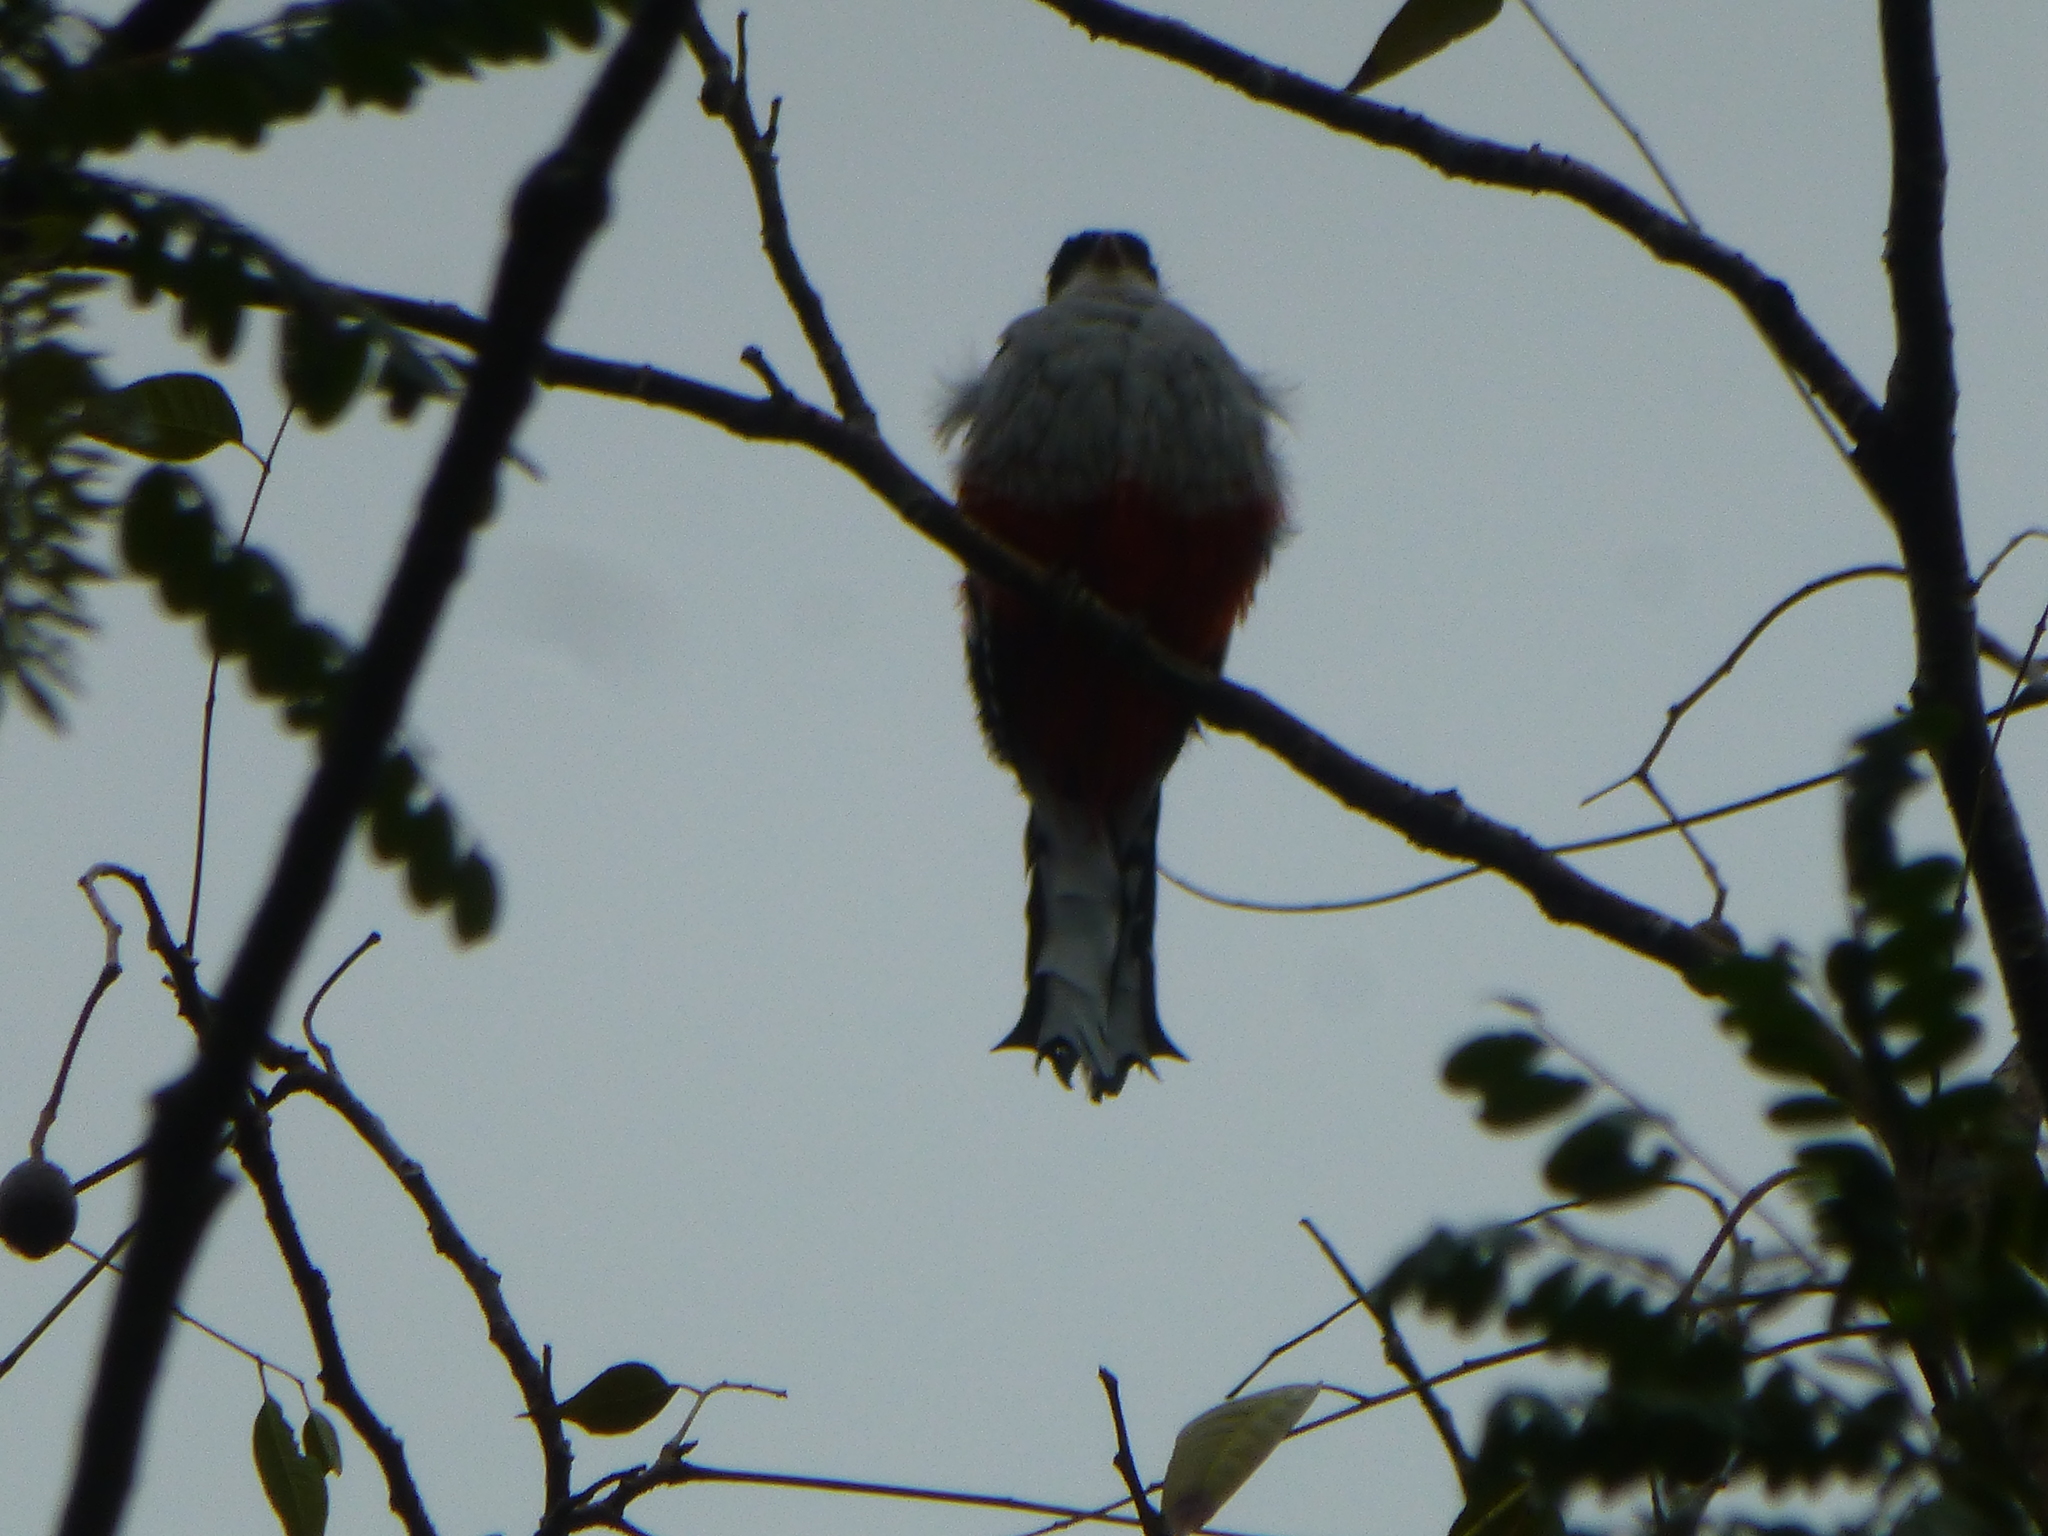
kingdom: Animalia
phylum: Chordata
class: Aves
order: Trogoniformes
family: Trogonidae
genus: Priotelus
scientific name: Priotelus temnurus
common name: Cuban trogon
